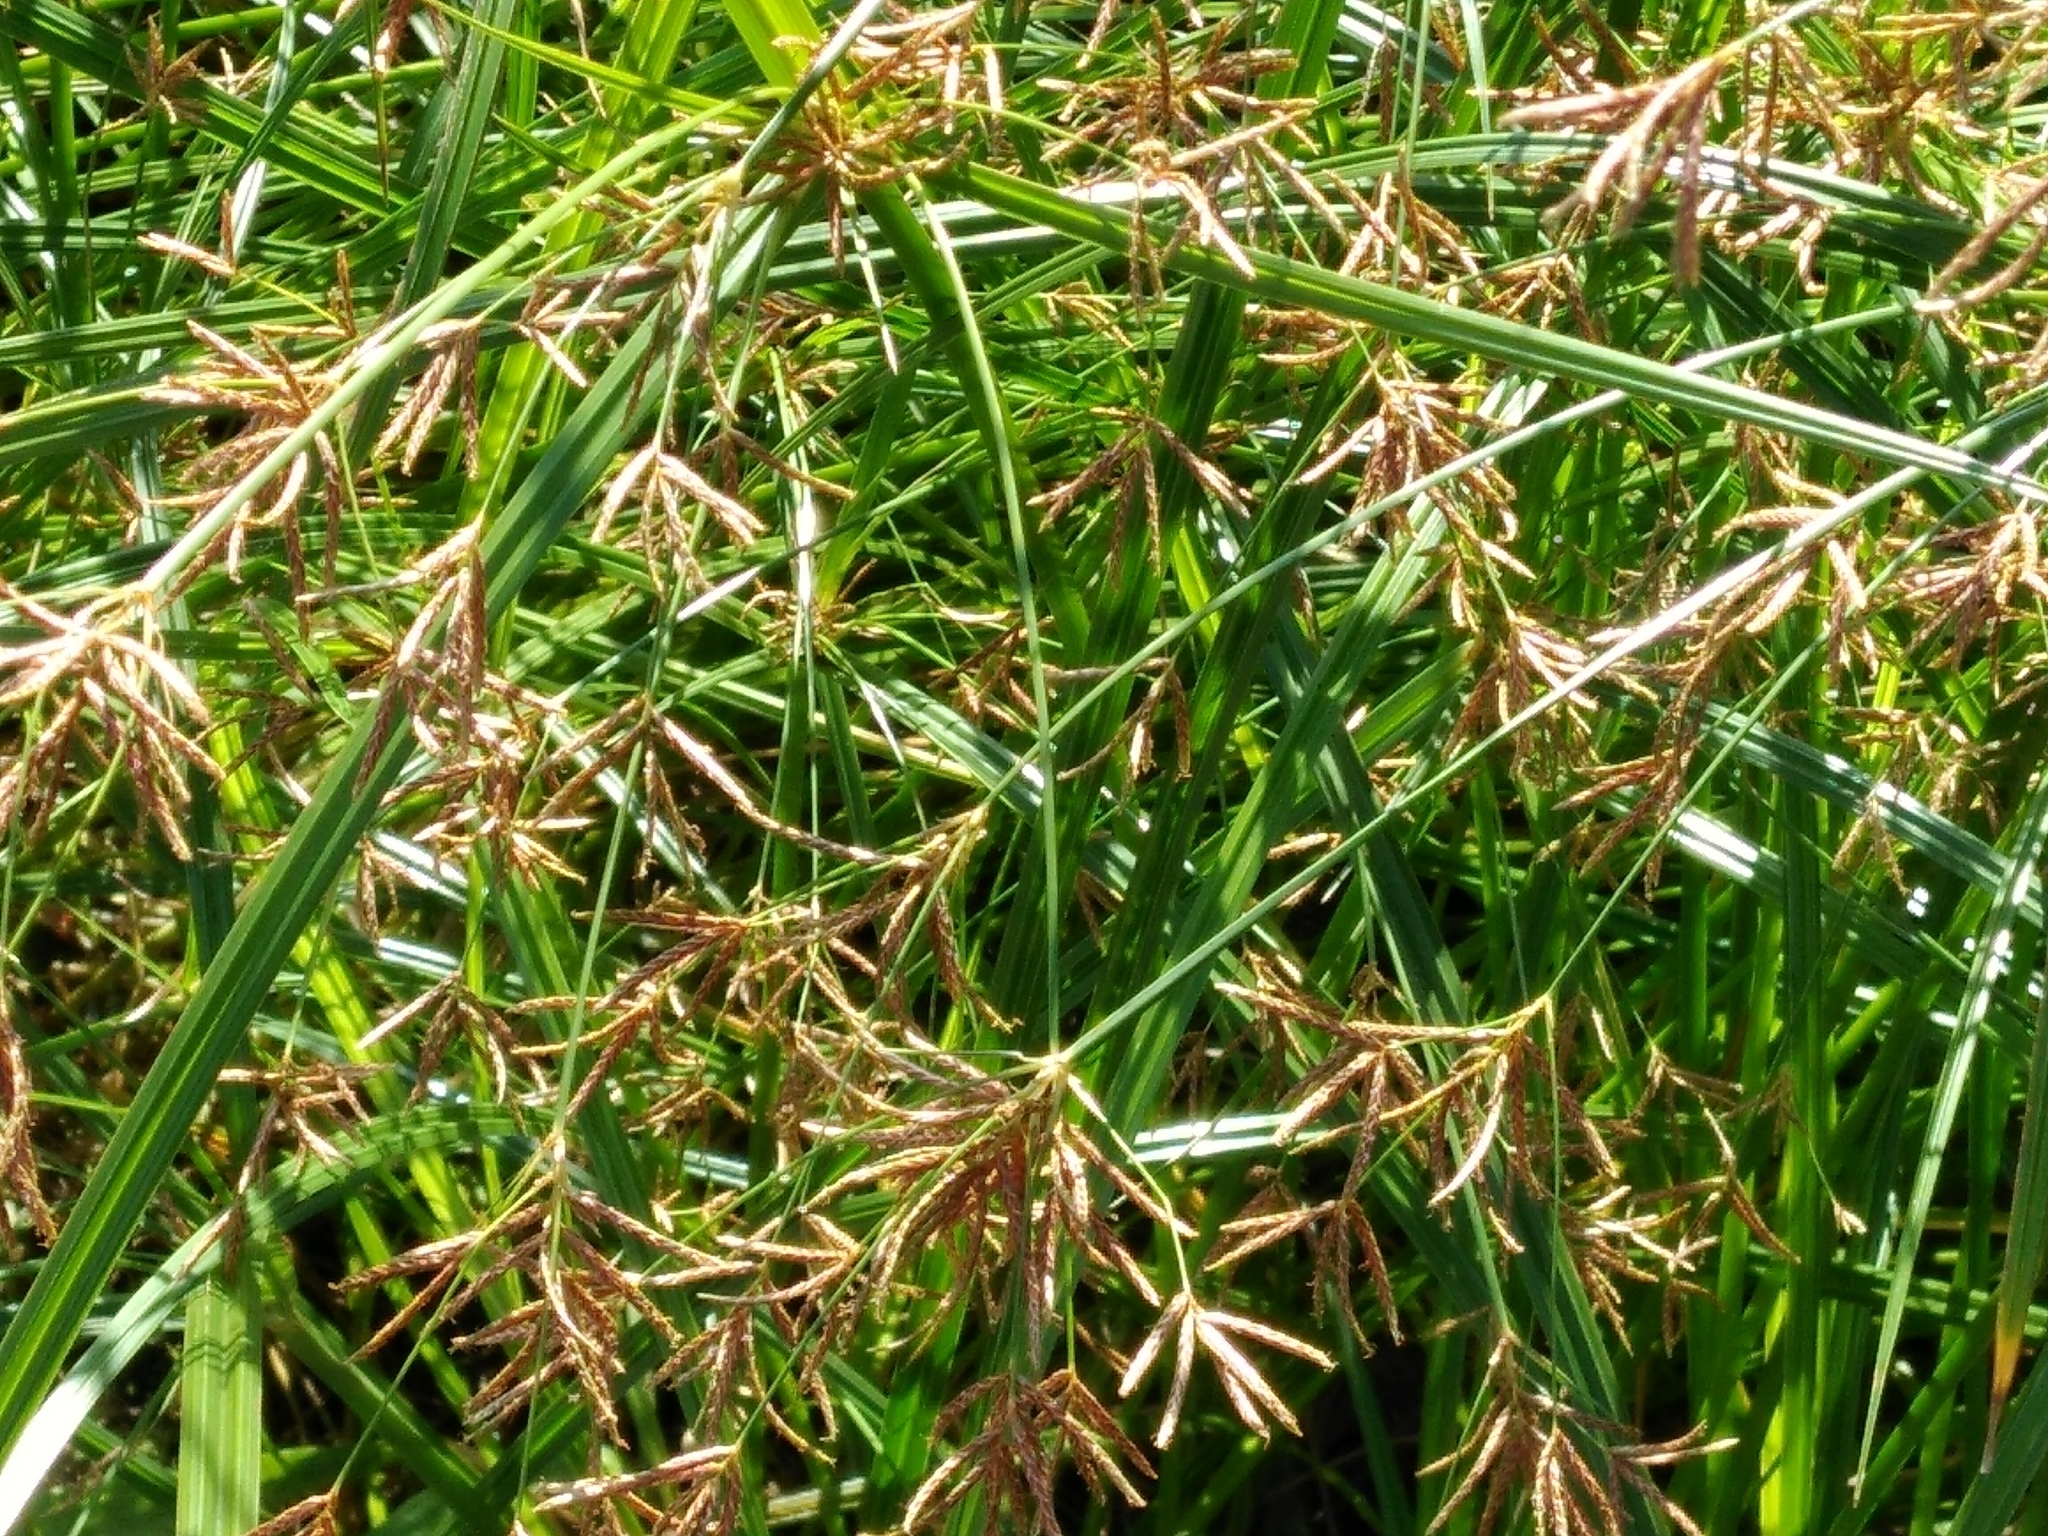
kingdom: Plantae
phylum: Tracheophyta
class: Liliopsida
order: Poales
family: Cyperaceae
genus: Cyperus
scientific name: Cyperus longus
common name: Galingale
